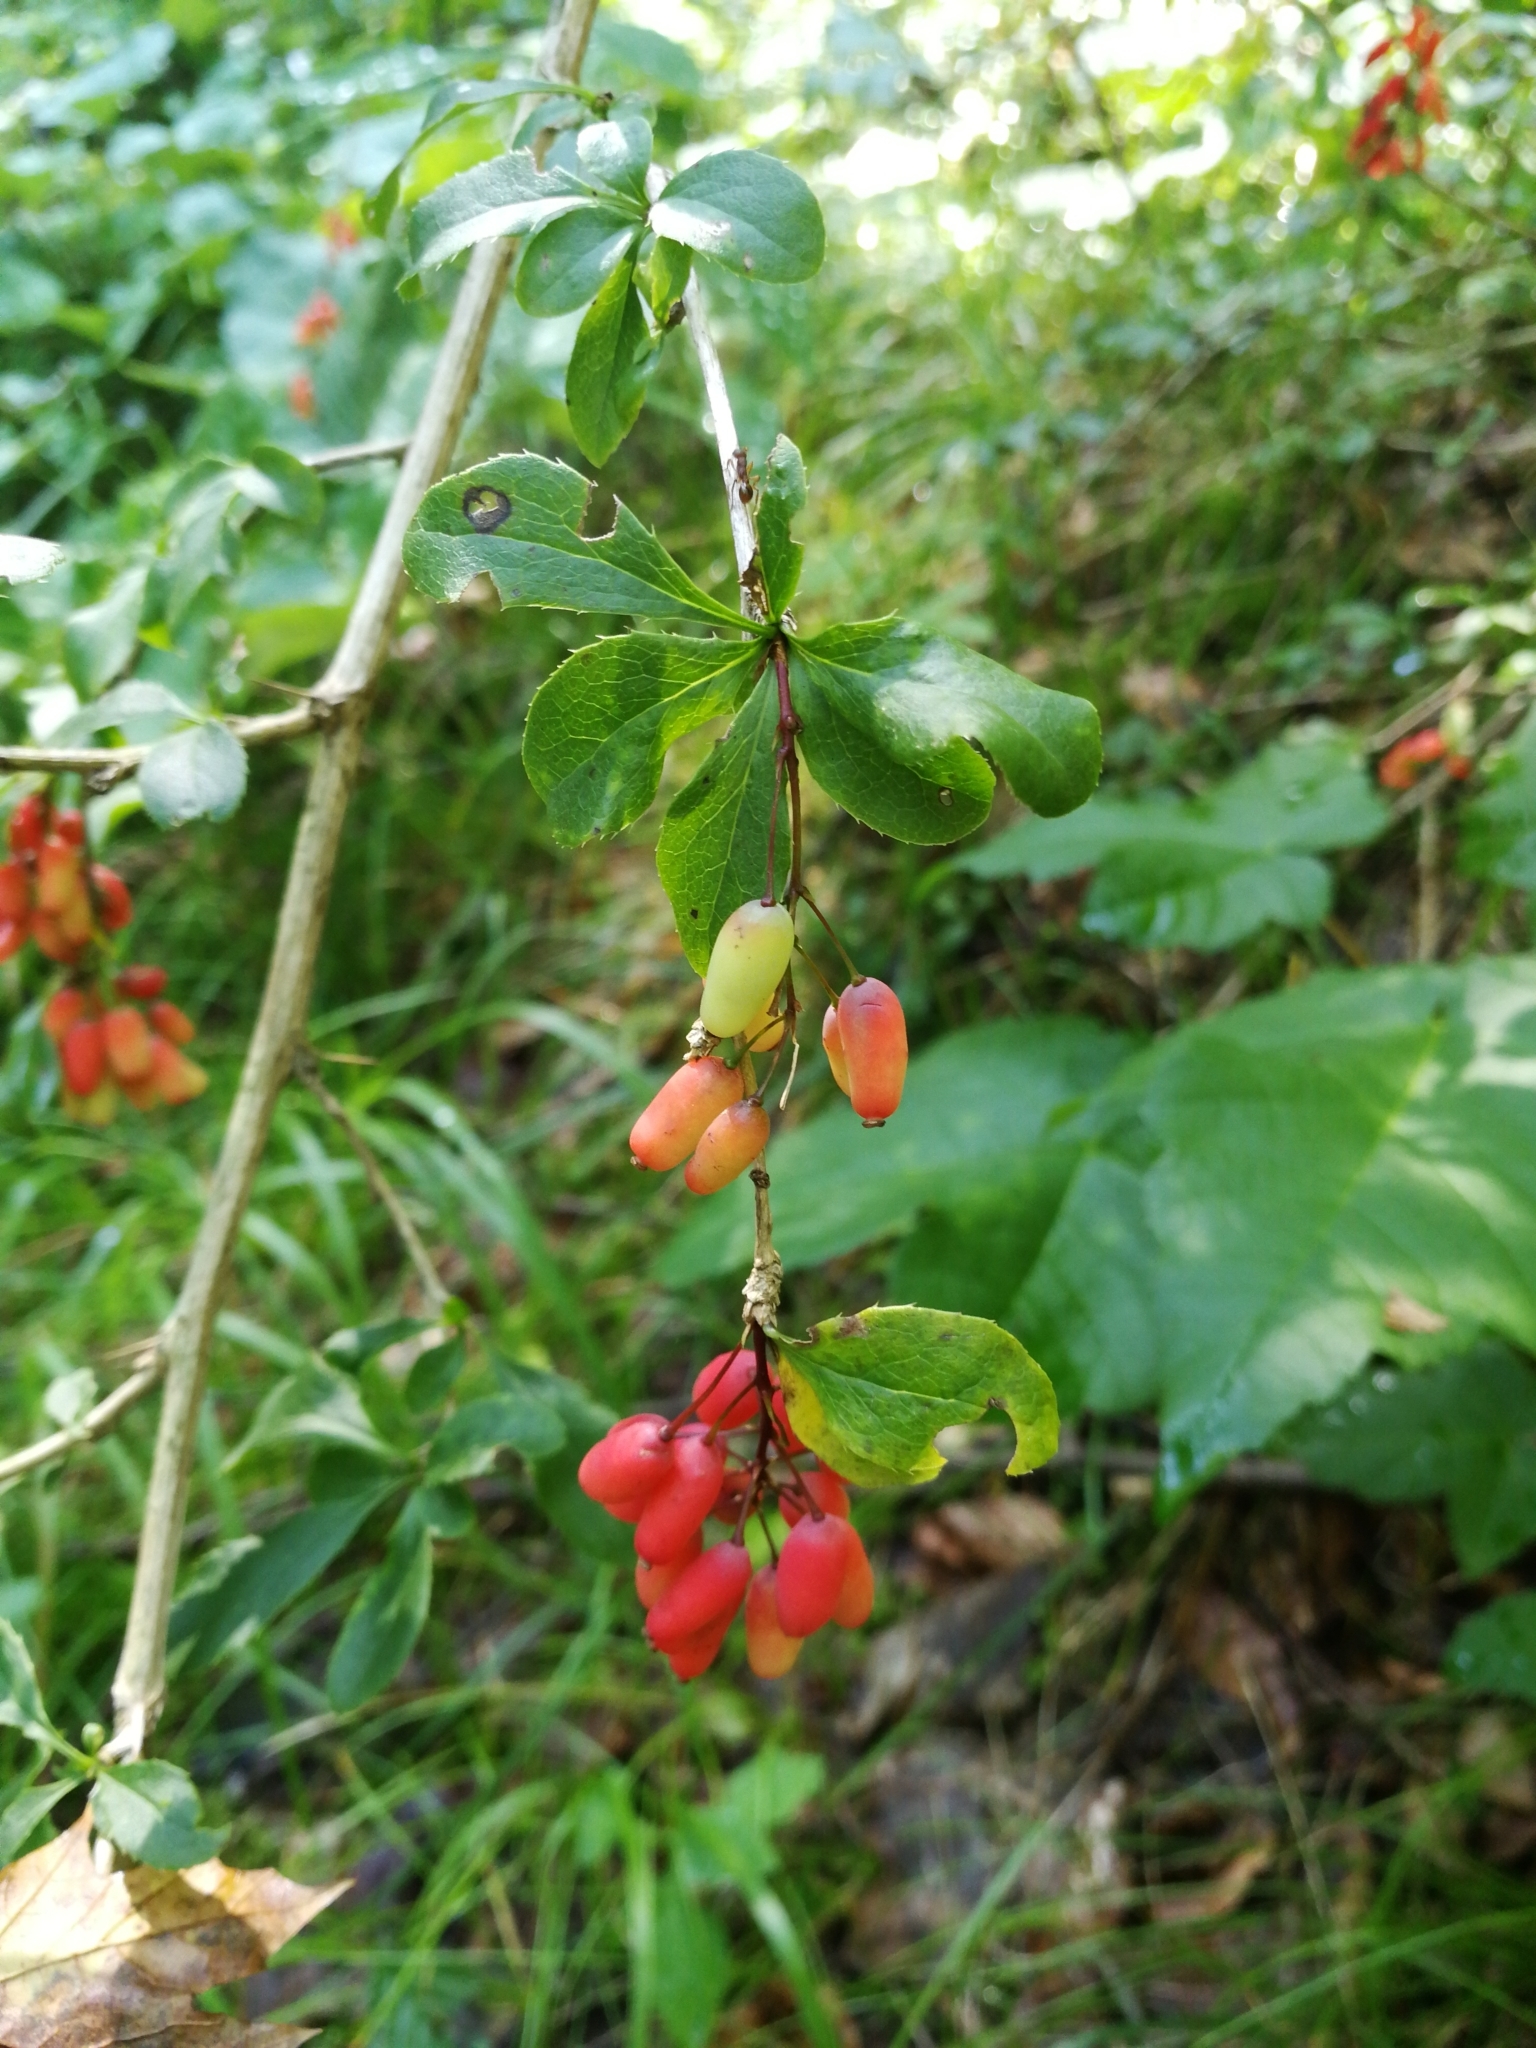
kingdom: Plantae
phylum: Tracheophyta
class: Magnoliopsida
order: Ranunculales
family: Berberidaceae
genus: Berberis
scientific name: Berberis vulgaris
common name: Barberry
